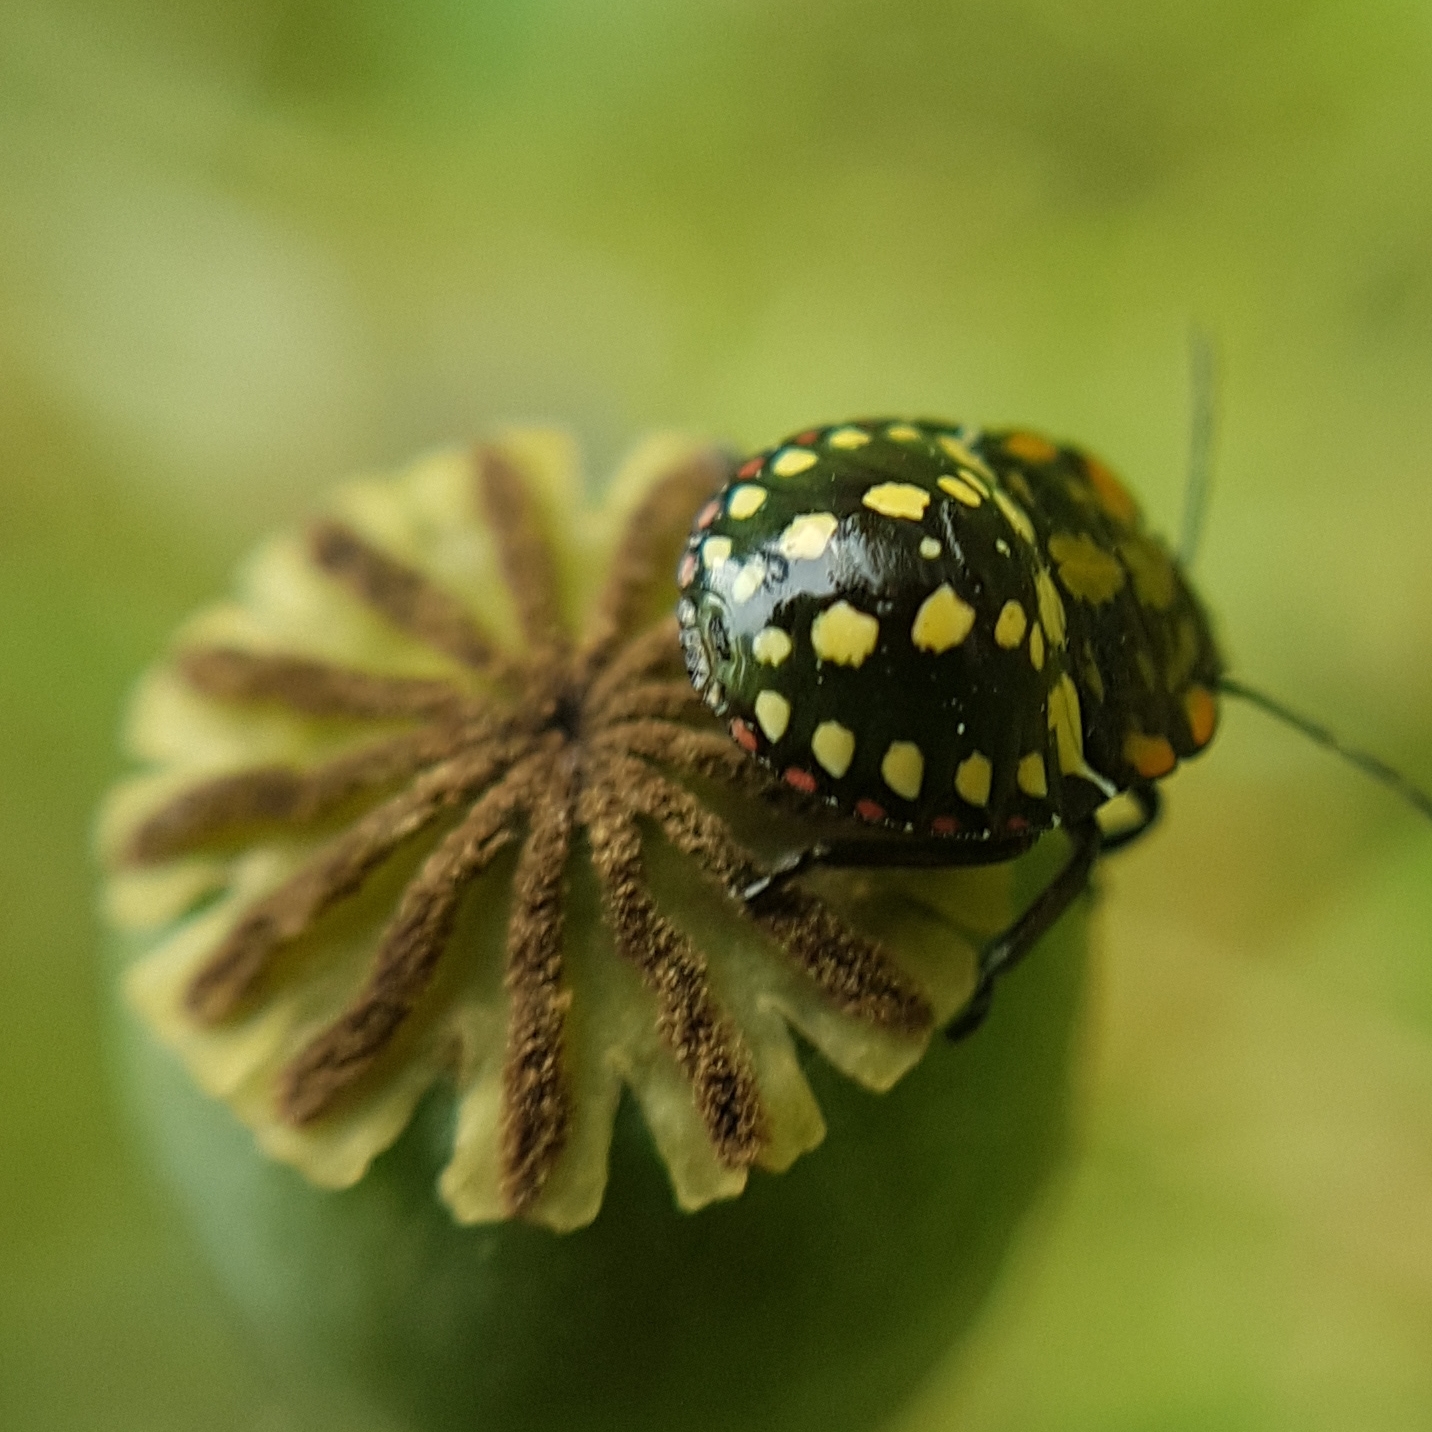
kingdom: Animalia
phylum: Arthropoda
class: Insecta
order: Hemiptera
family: Pentatomidae
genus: Nezara
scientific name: Nezara viridula
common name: Southern green stink bug
